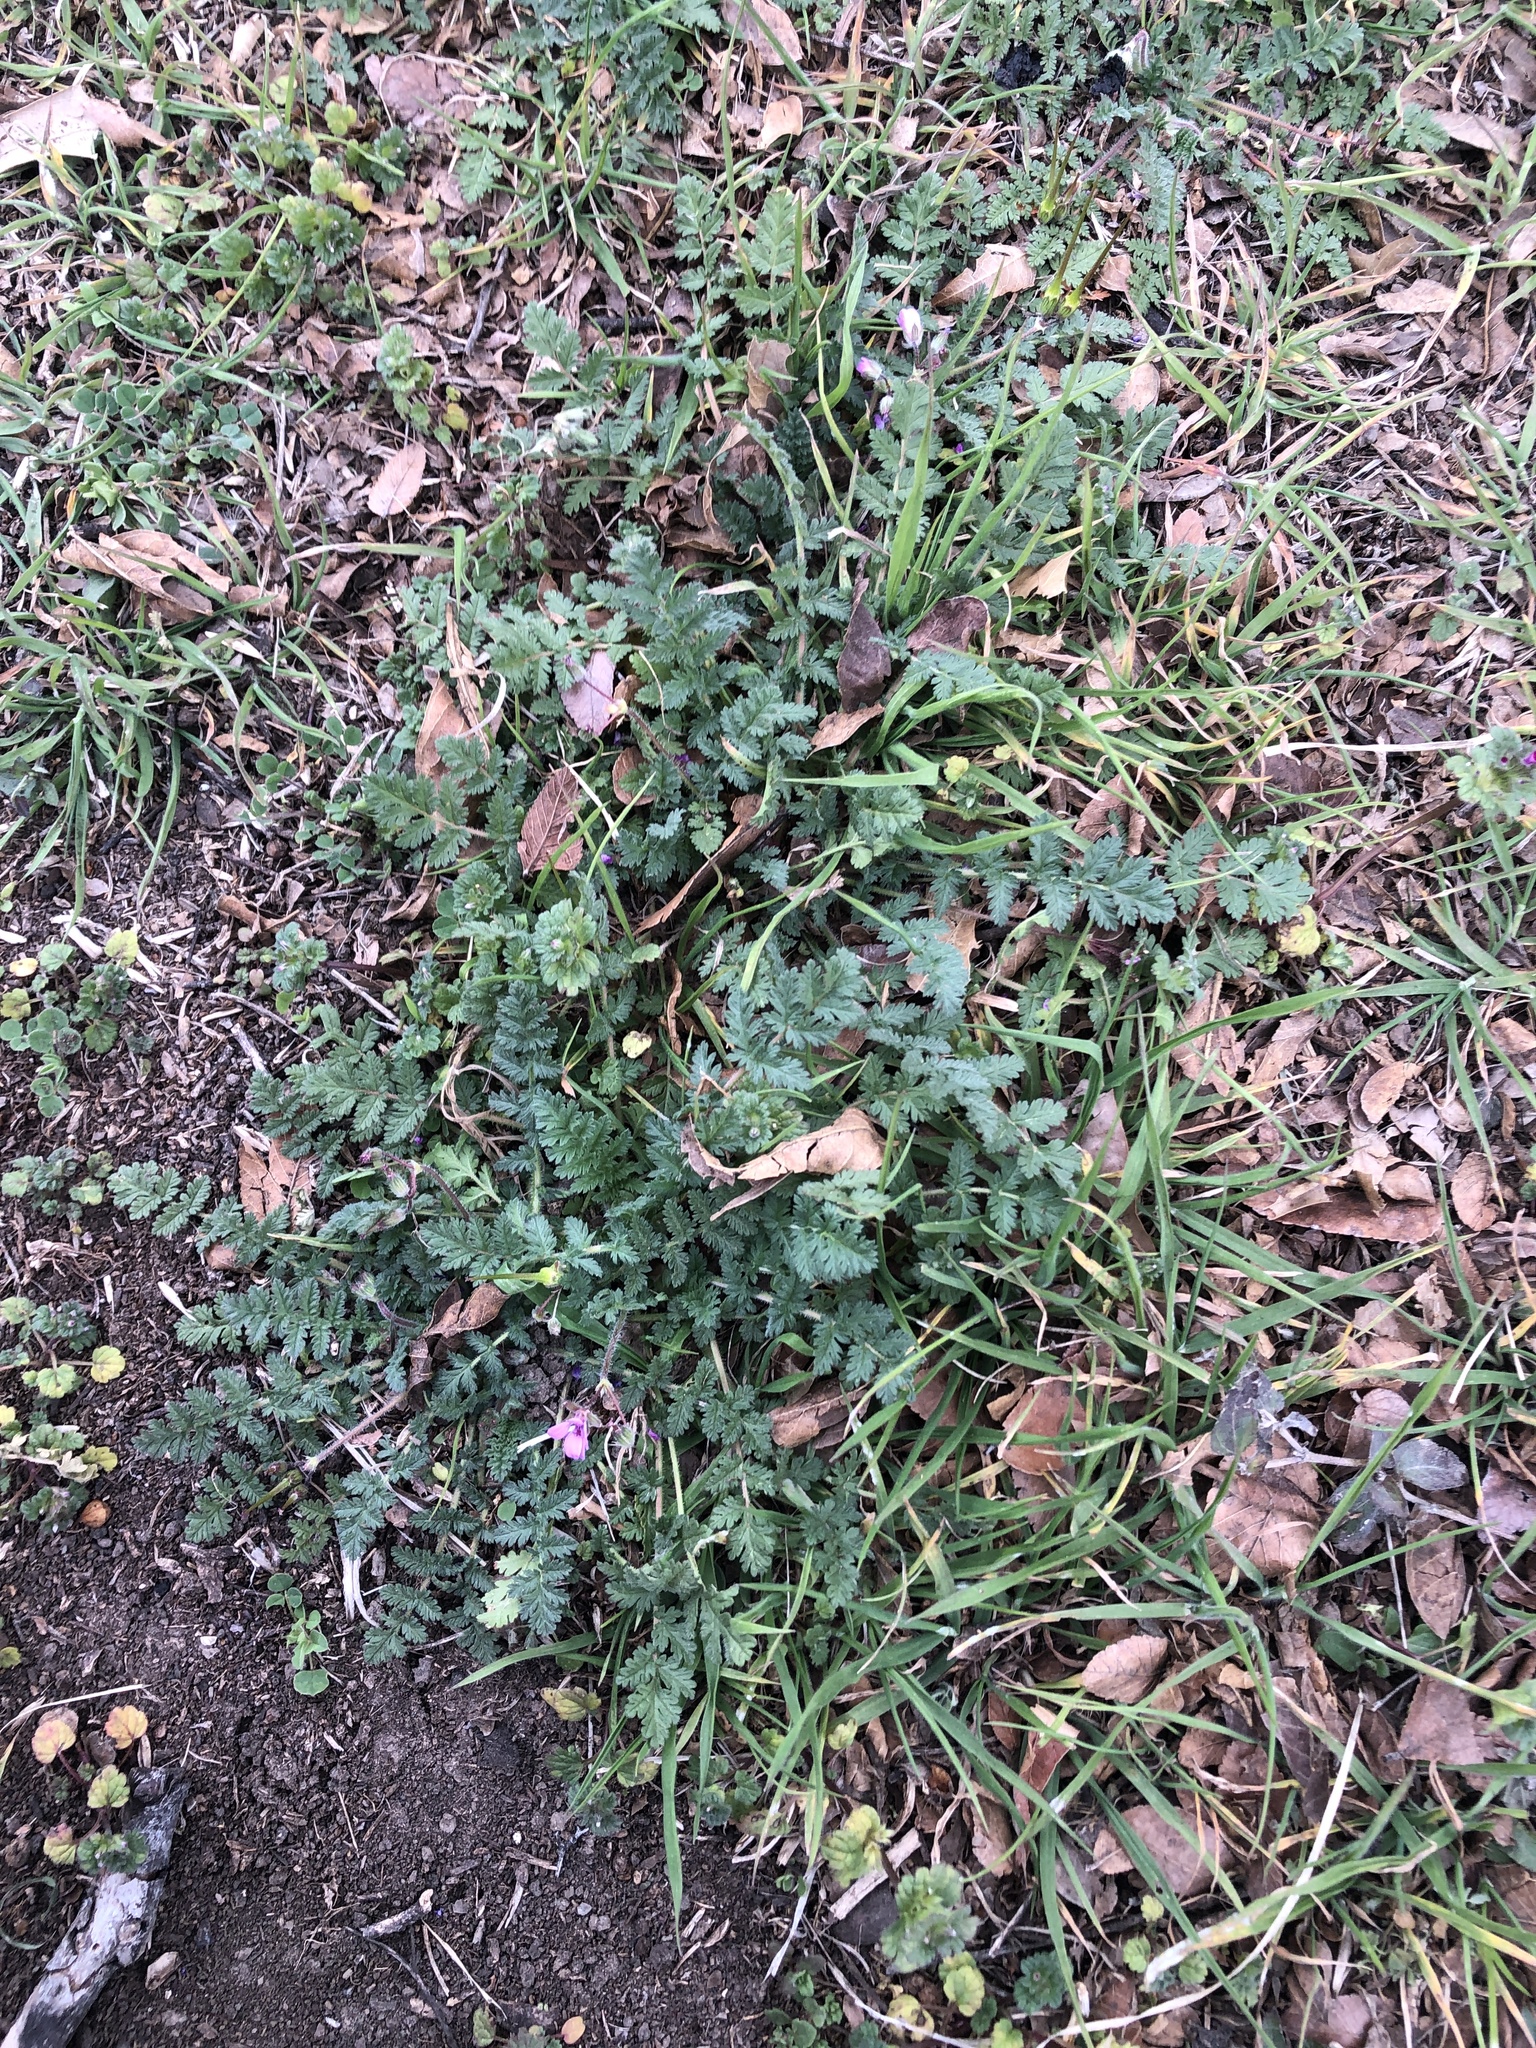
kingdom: Plantae
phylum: Tracheophyta
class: Magnoliopsida
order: Geraniales
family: Geraniaceae
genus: Erodium
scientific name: Erodium cicutarium
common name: Common stork's-bill
